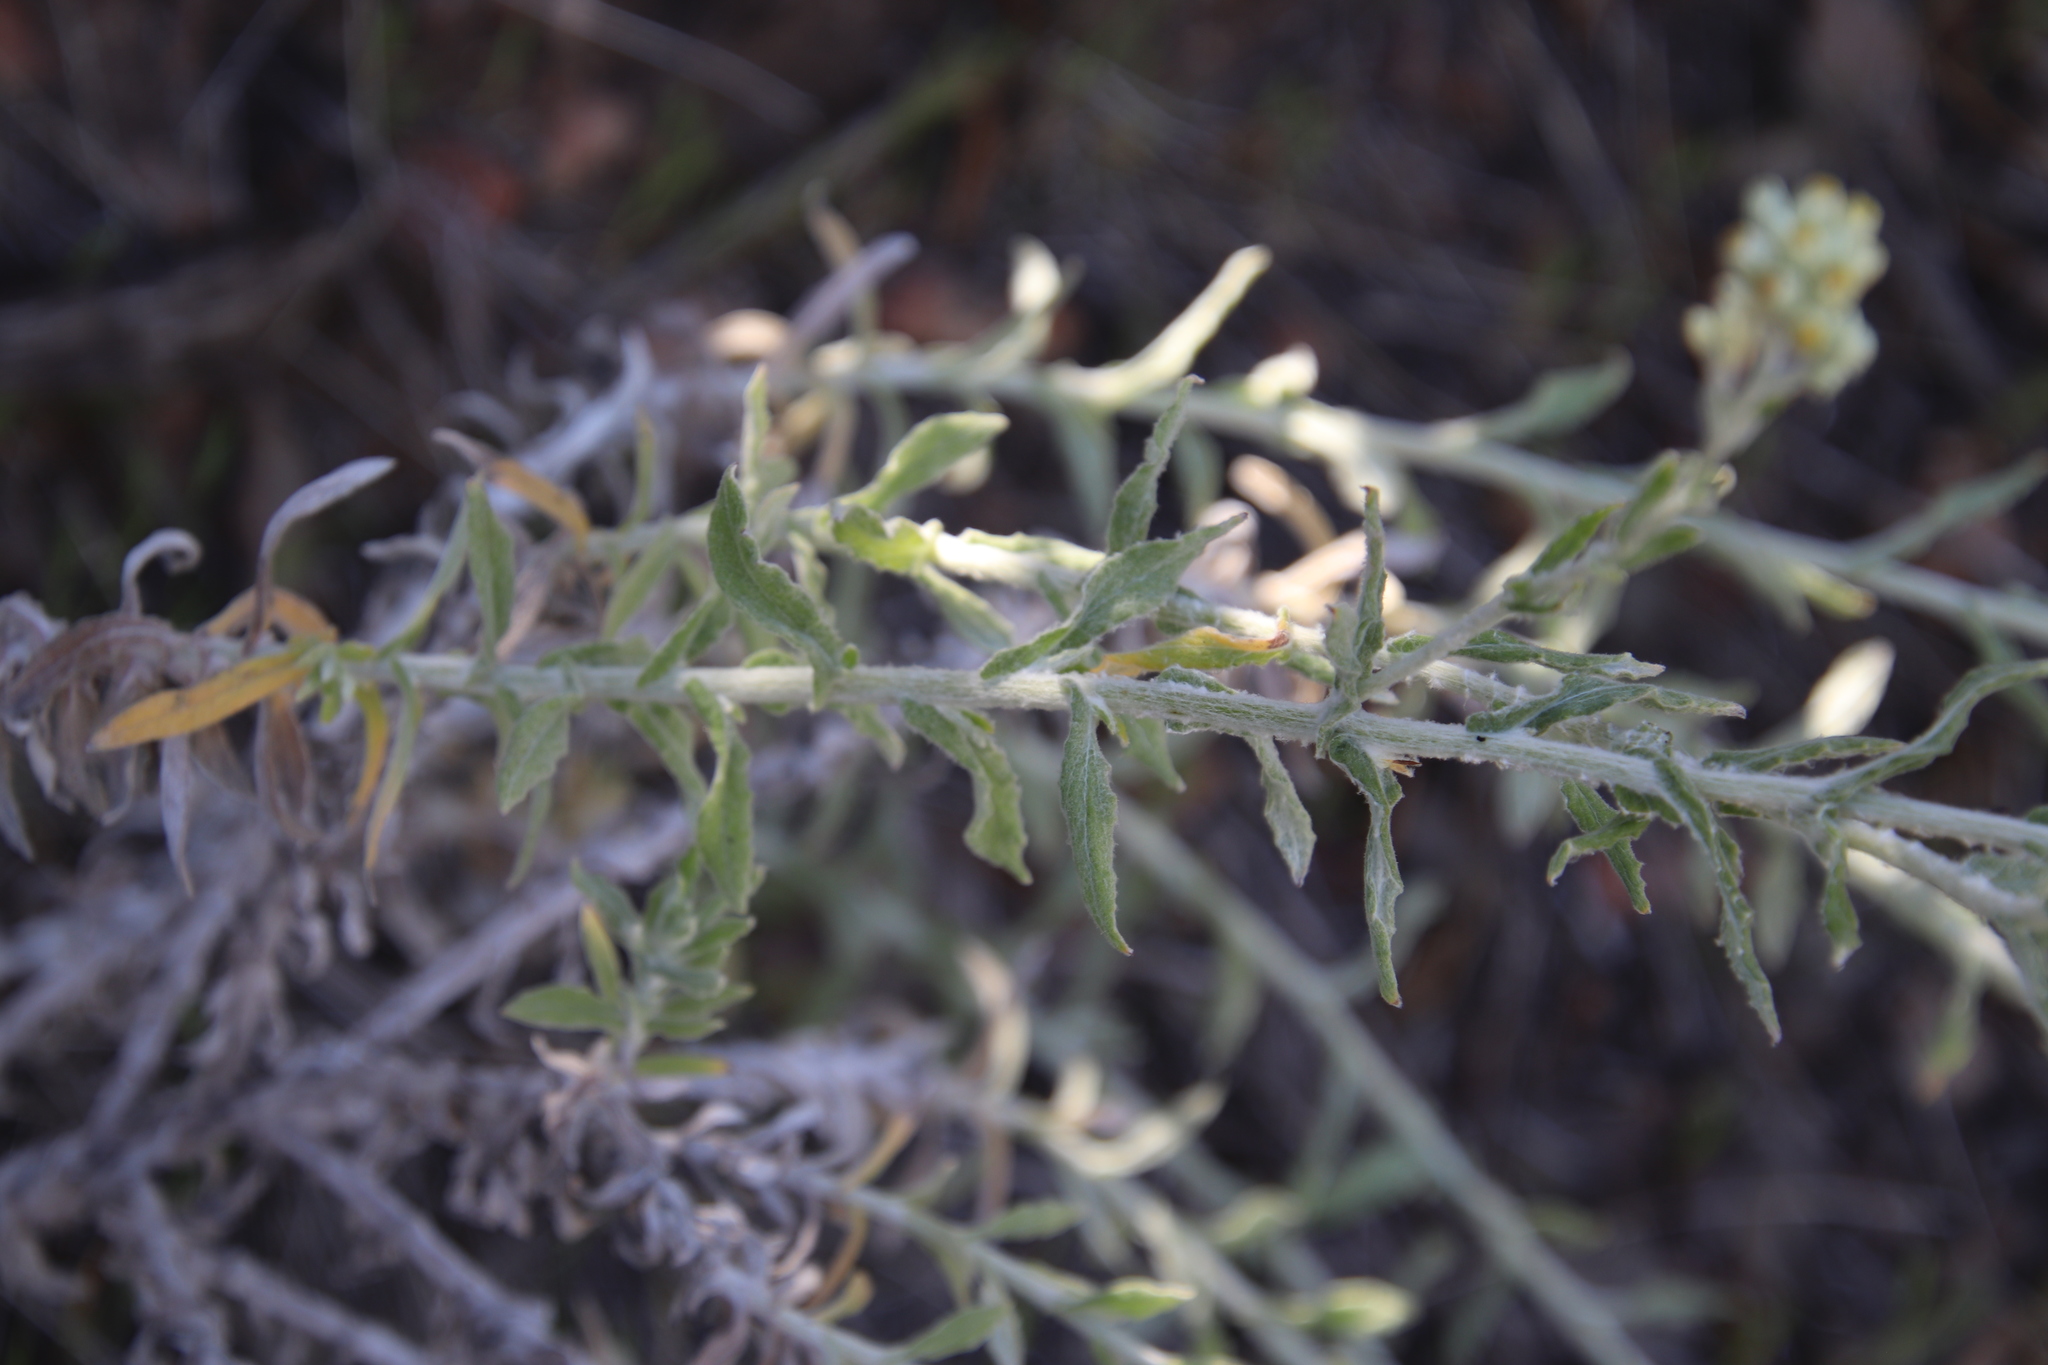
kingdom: Plantae
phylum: Tracheophyta
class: Magnoliopsida
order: Asterales
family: Asteraceae
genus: Pseudognaphalium
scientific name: Pseudognaphalium biolettii
